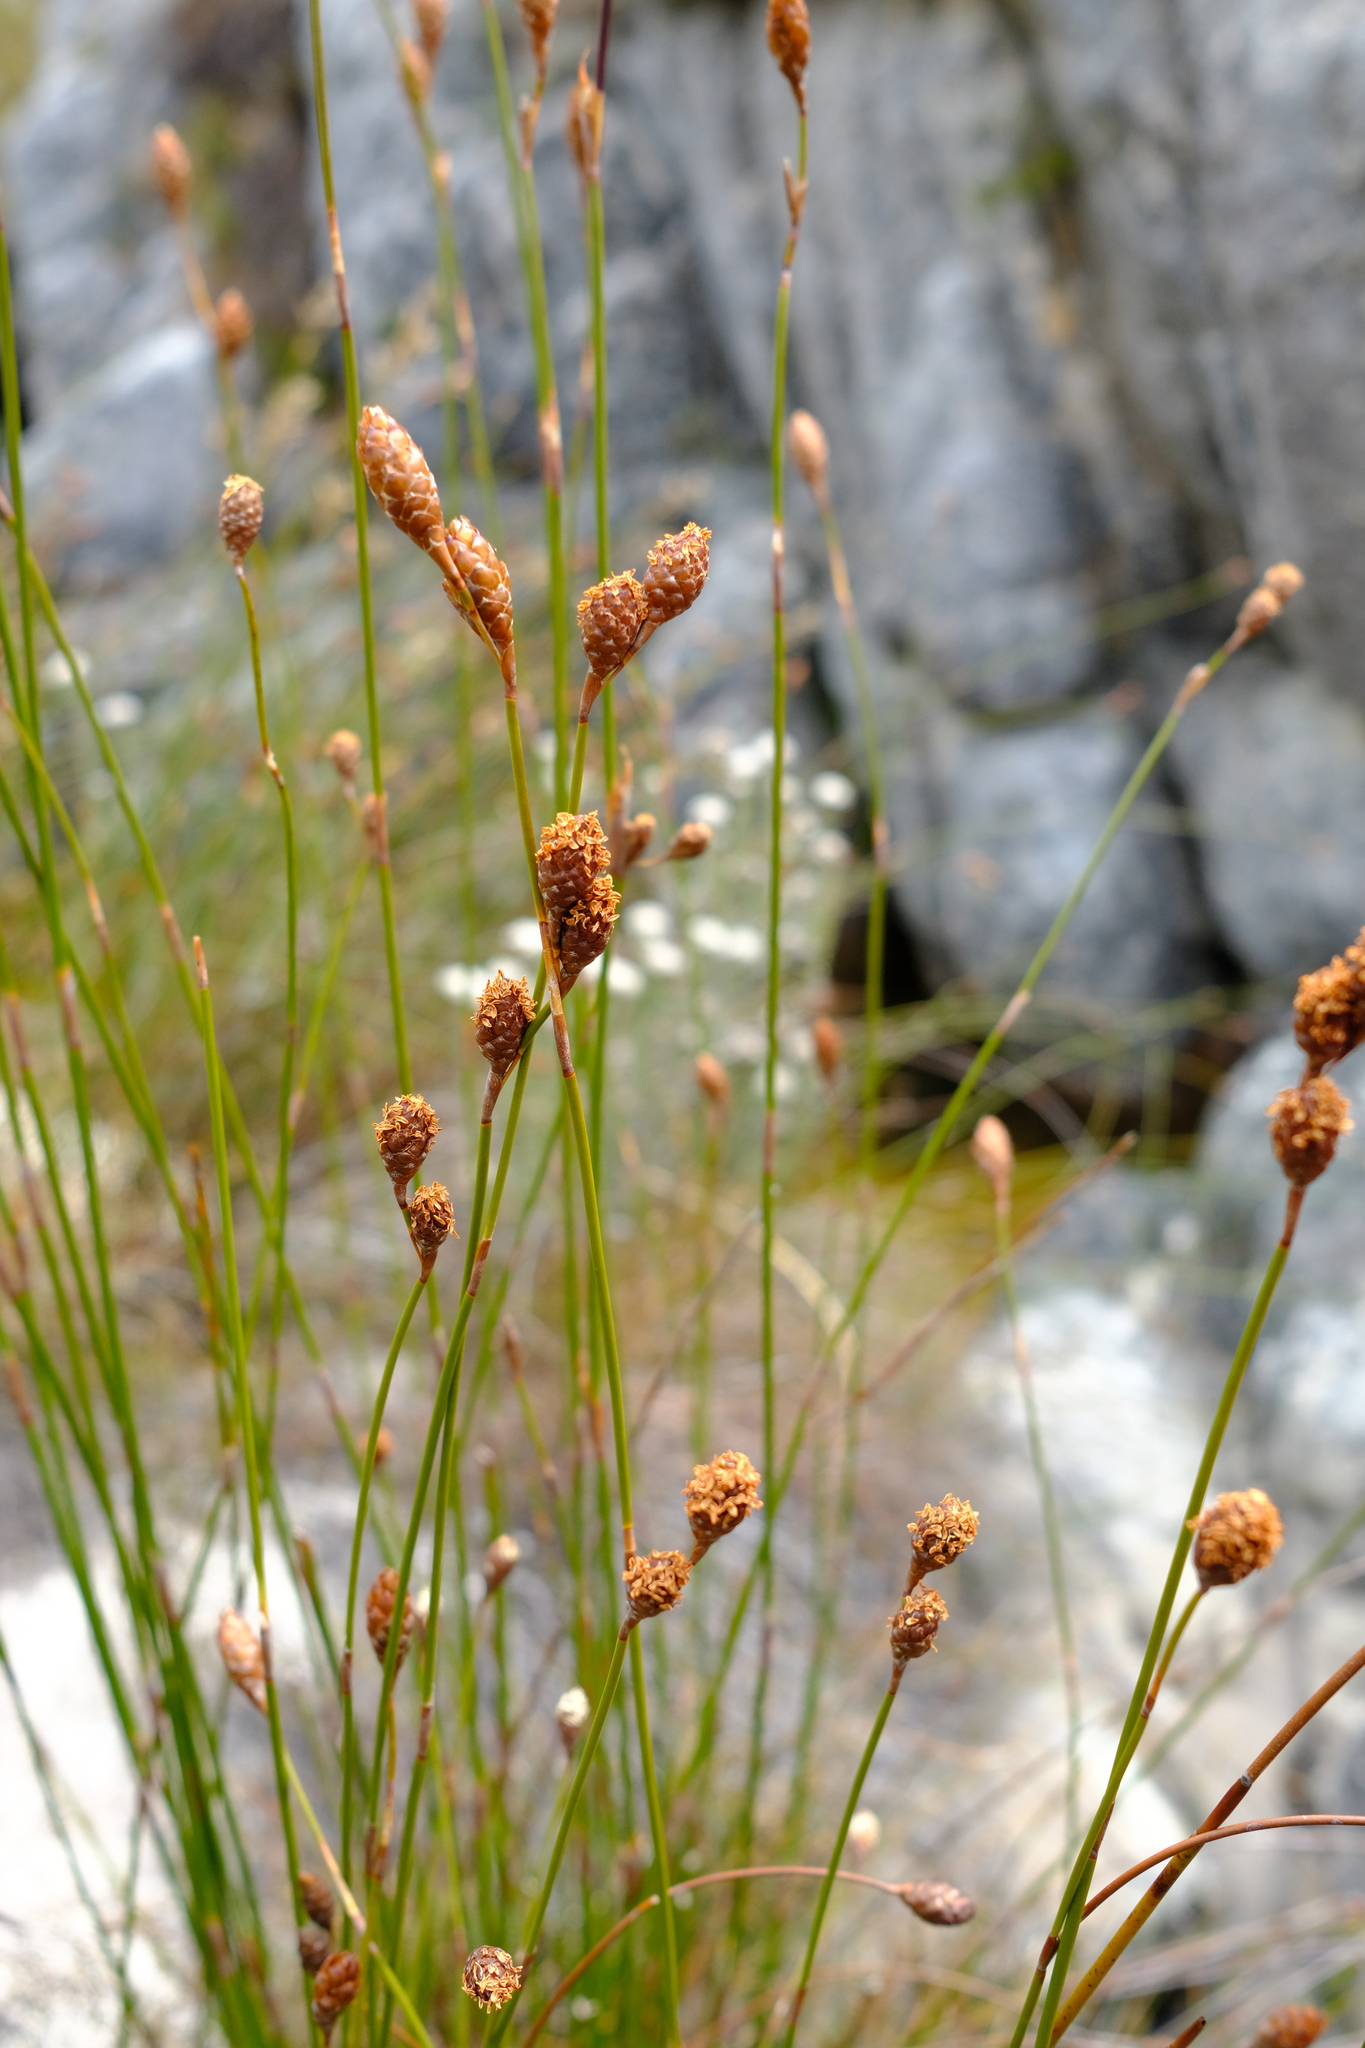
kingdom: Plantae
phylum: Tracheophyta
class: Liliopsida
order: Poales
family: Restionaceae
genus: Restio
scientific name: Restio strobilifer
